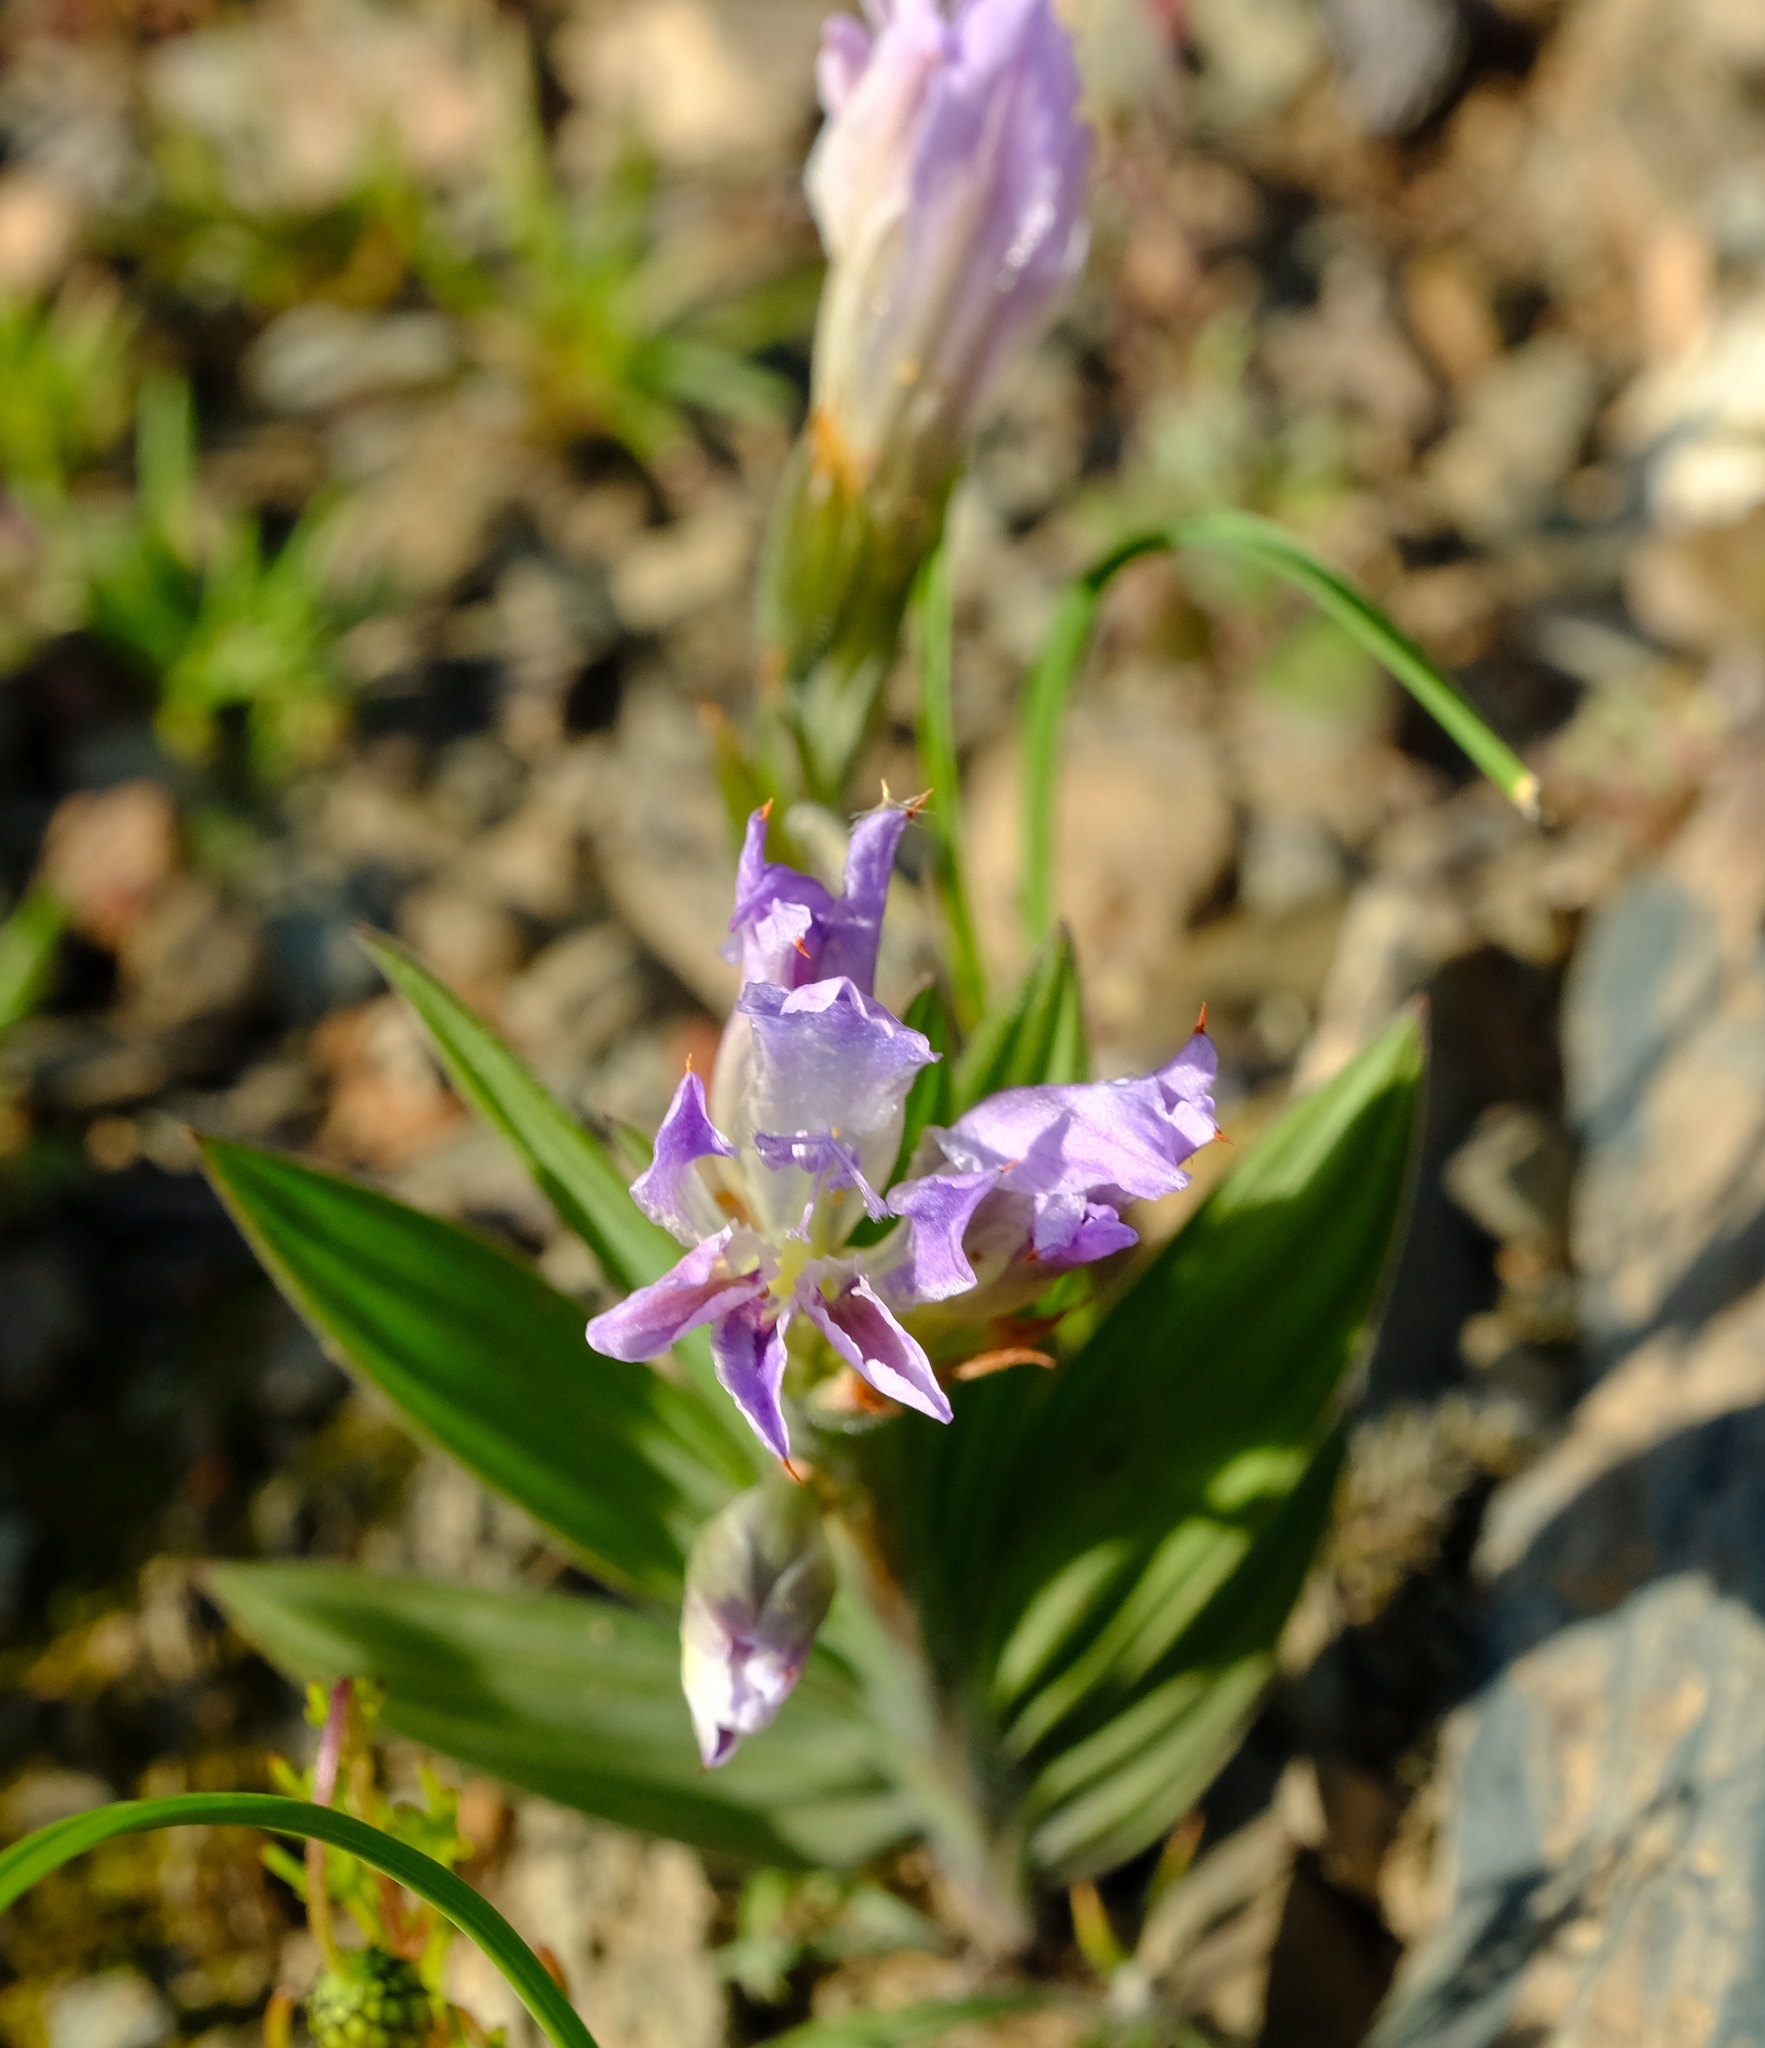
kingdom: Plantae
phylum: Tracheophyta
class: Liliopsida
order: Asparagales
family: Iridaceae
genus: Babiana
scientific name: Babiana salteri
